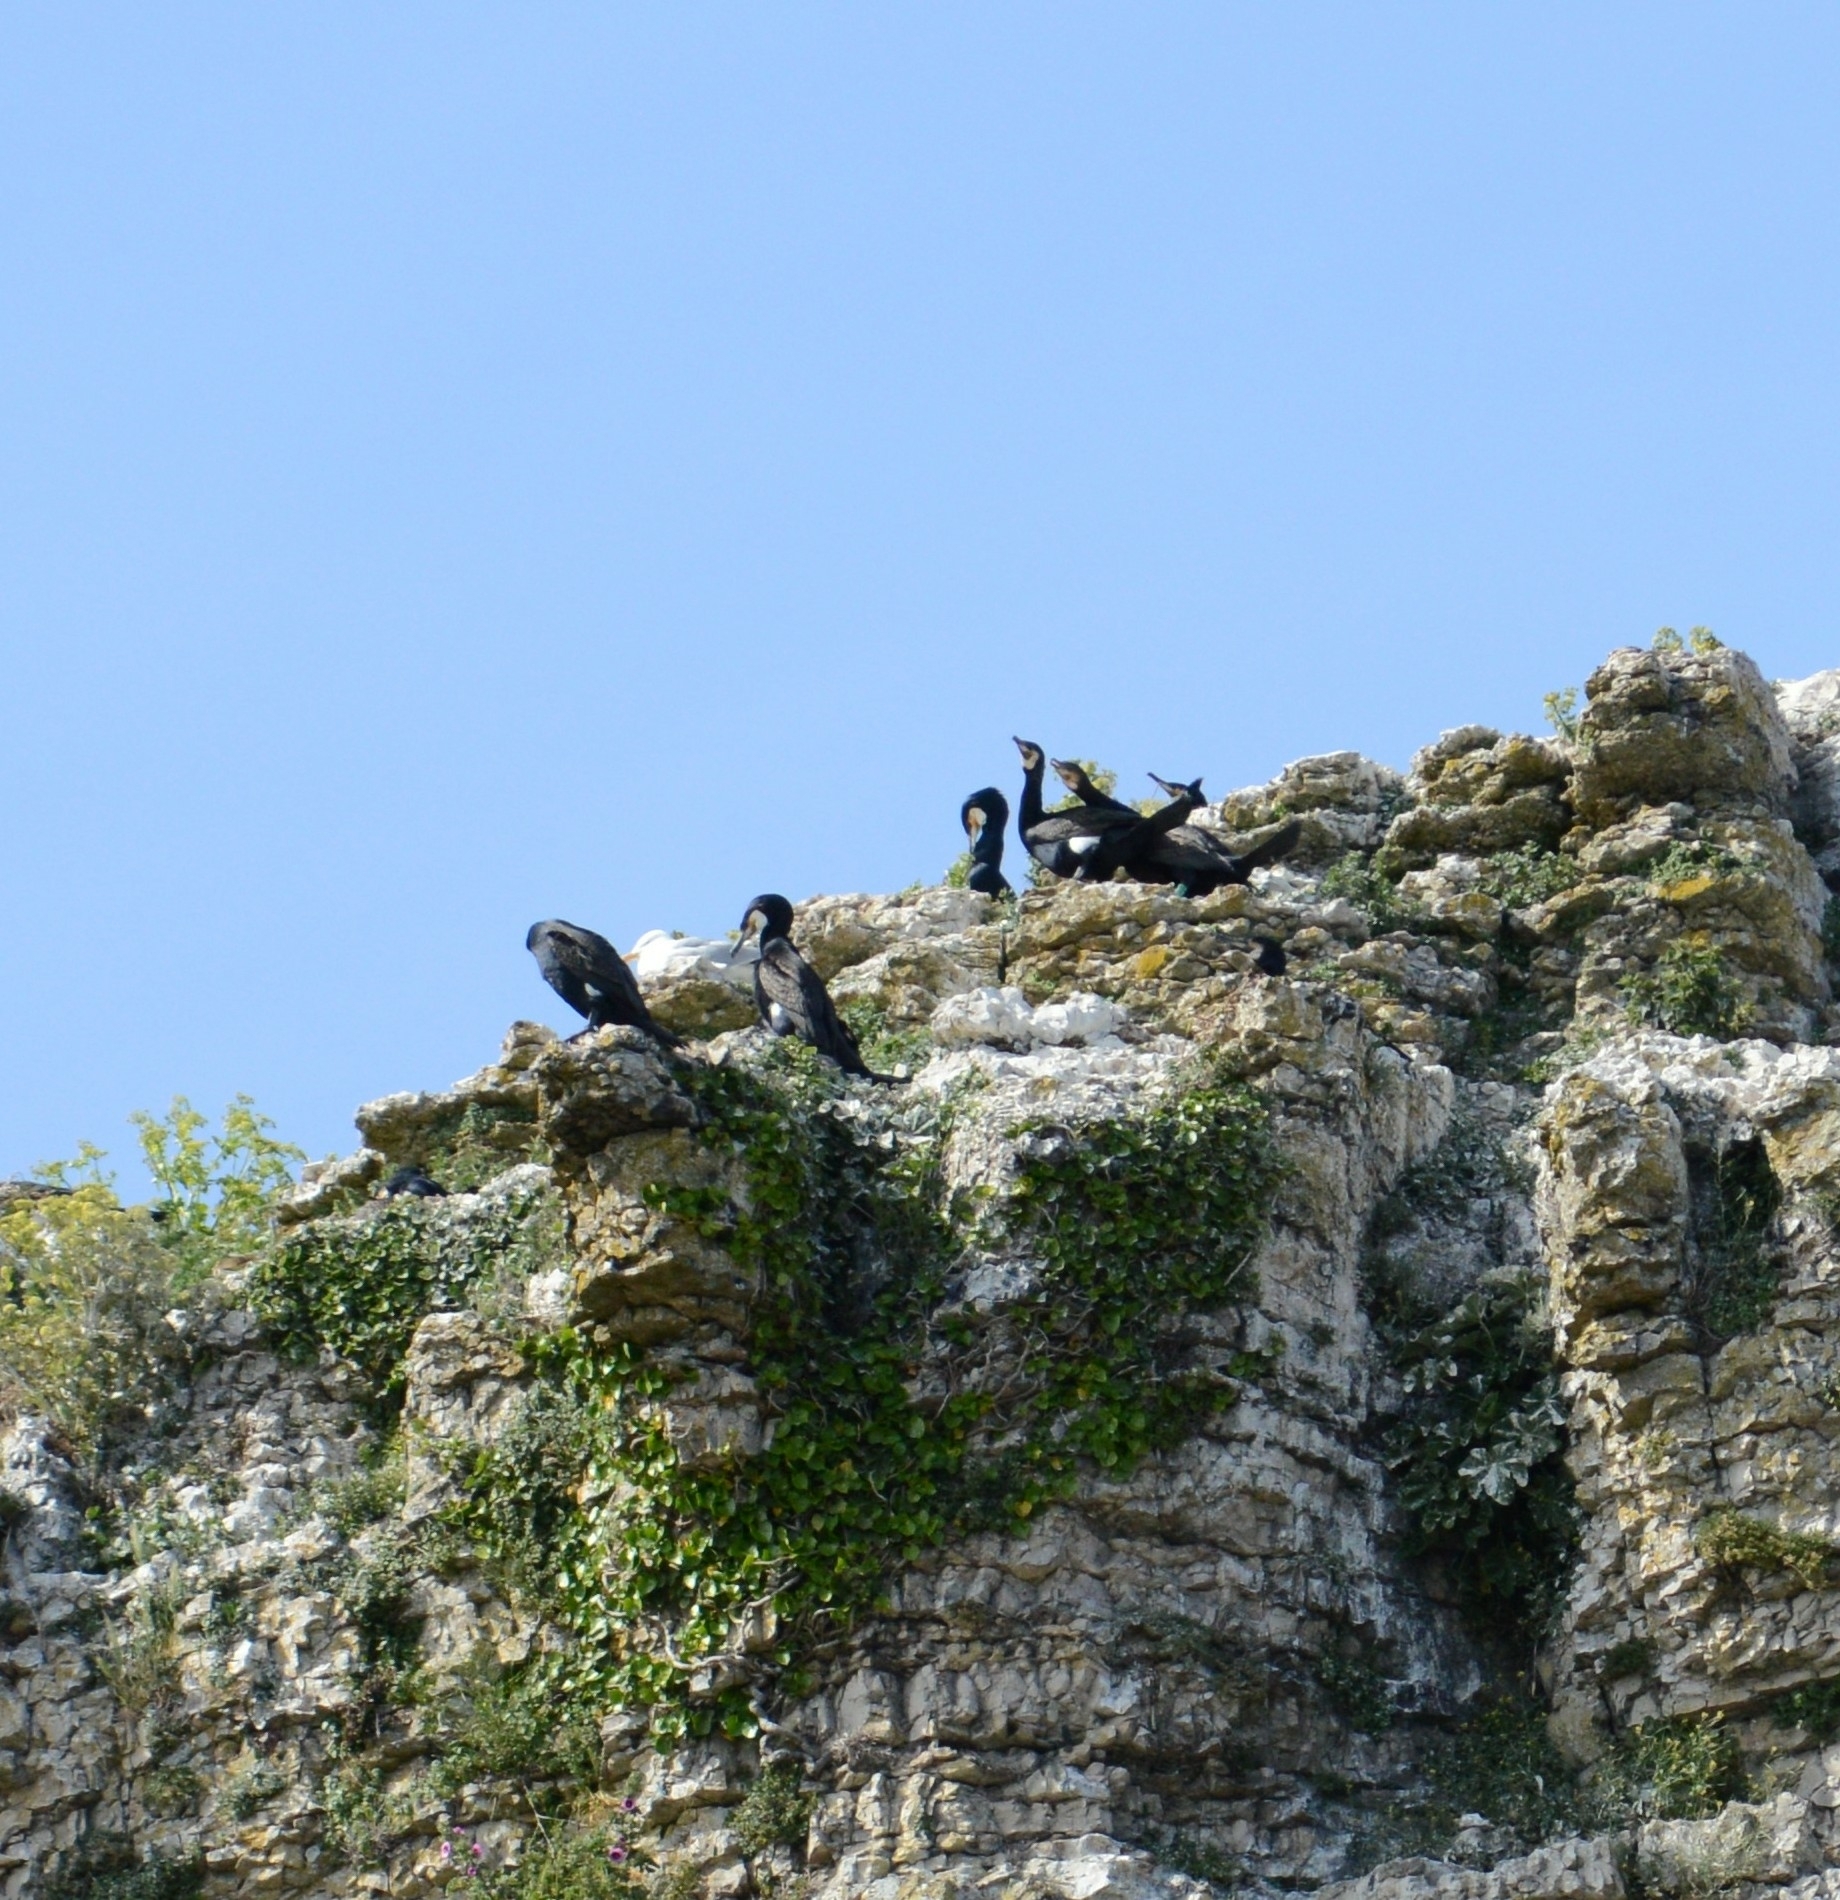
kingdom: Animalia
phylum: Chordata
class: Aves
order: Suliformes
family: Phalacrocoracidae
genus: Phalacrocorax
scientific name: Phalacrocorax carbo
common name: Great cormorant
